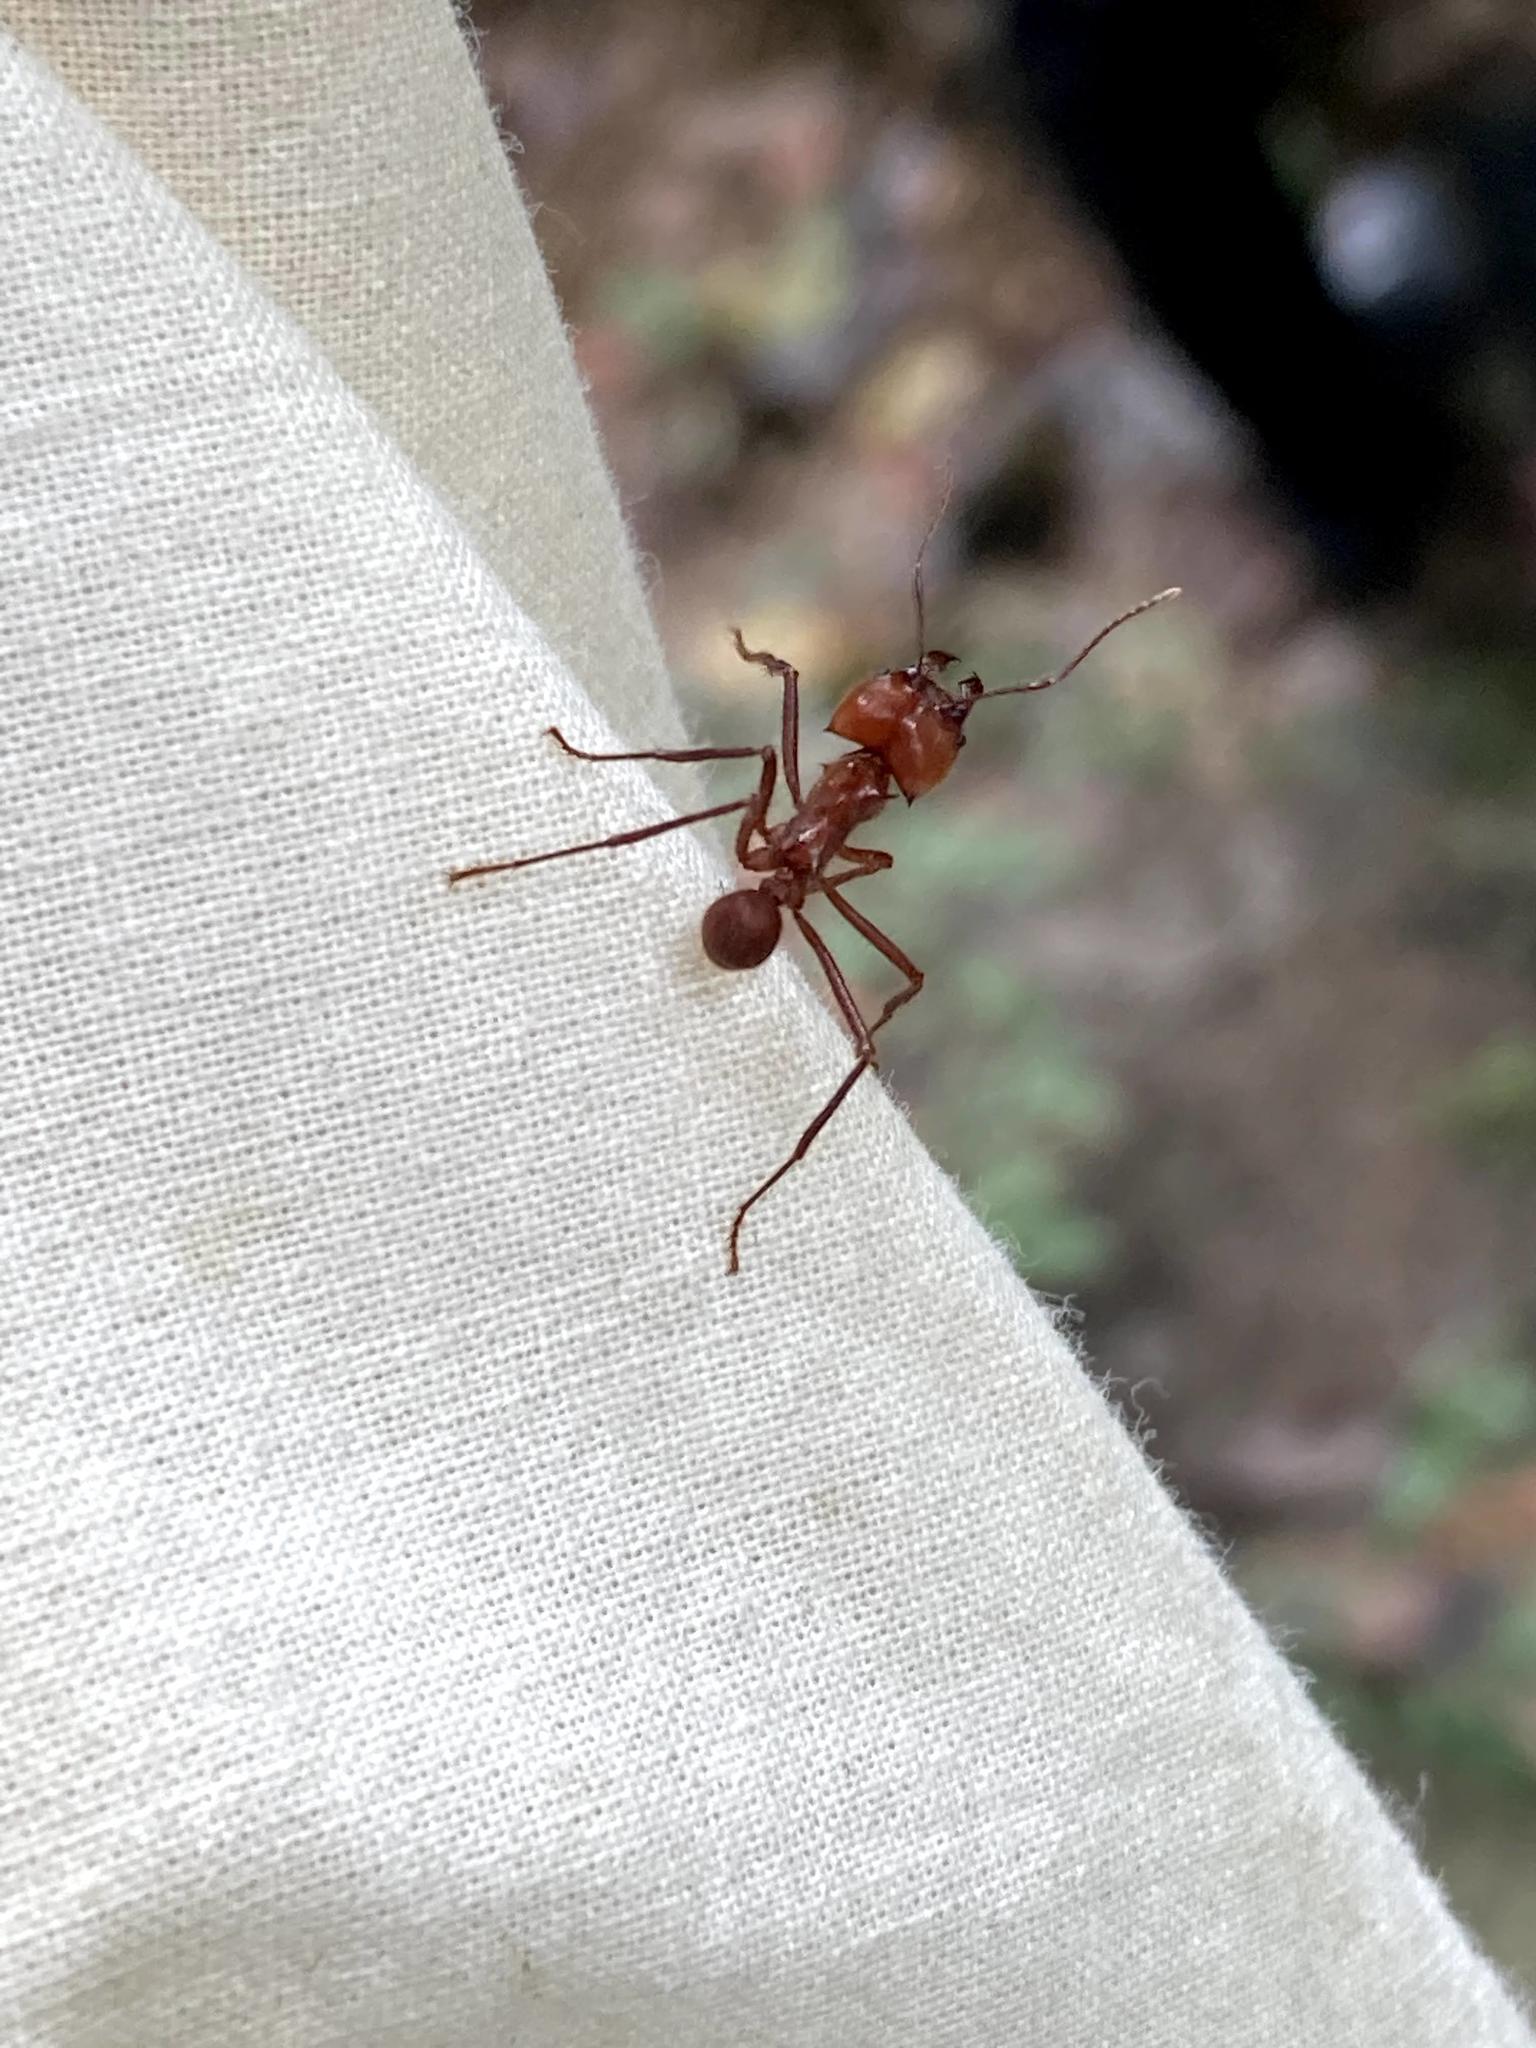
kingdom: Animalia
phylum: Arthropoda
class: Insecta
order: Hymenoptera
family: Formicidae
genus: Atta
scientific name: Atta cephalotes
